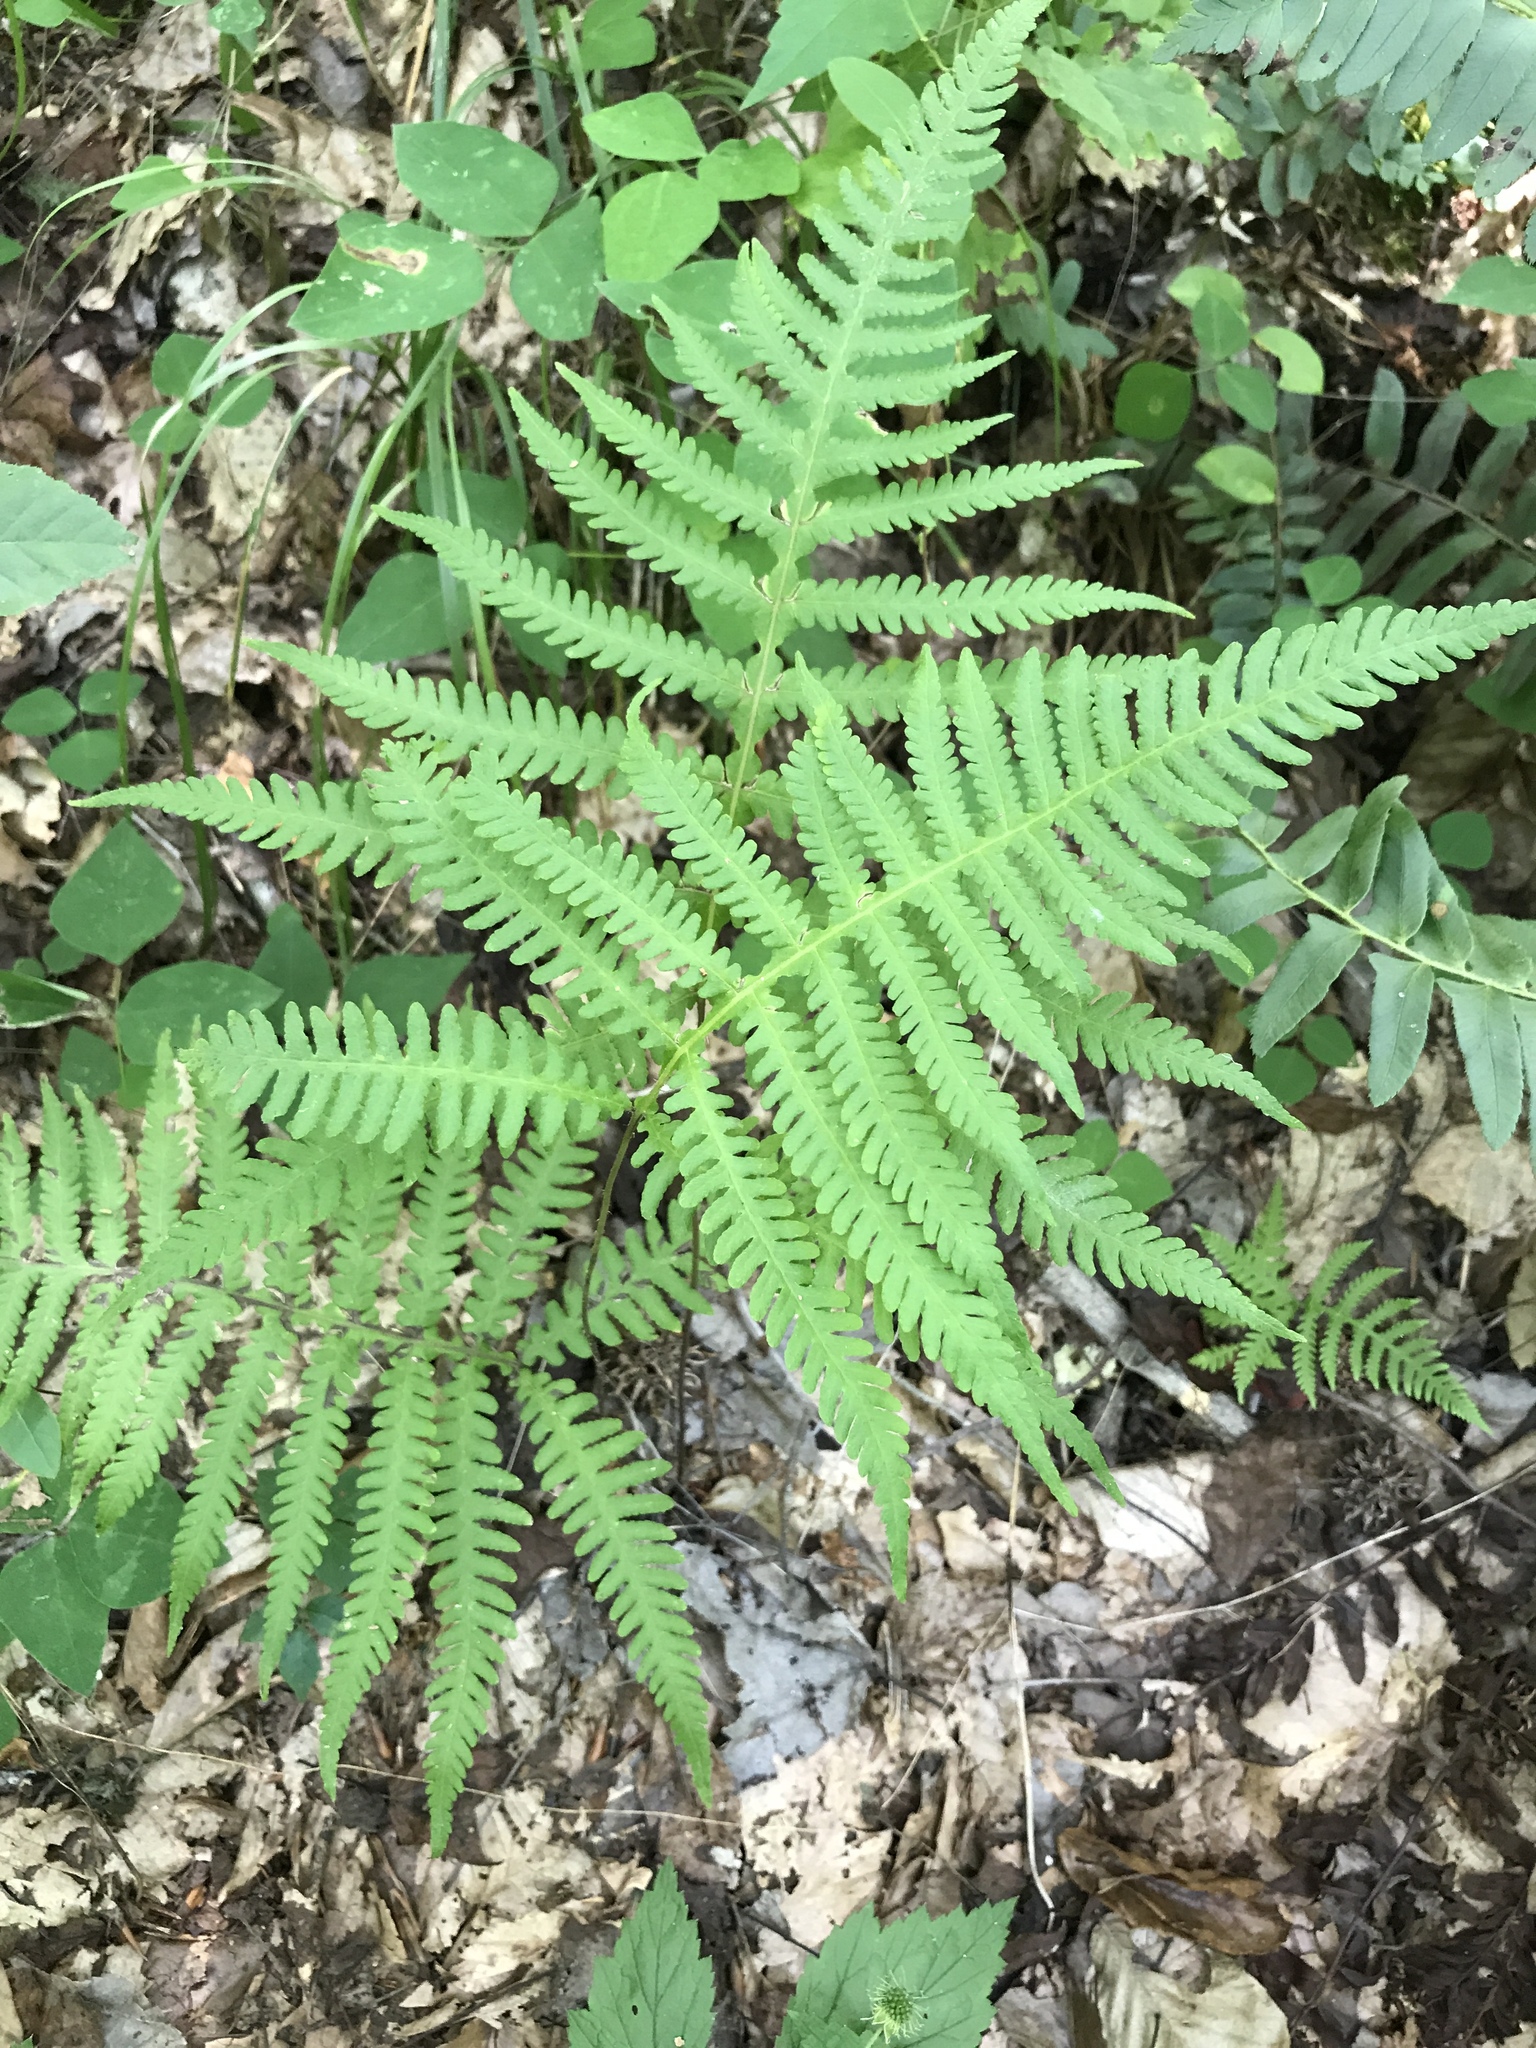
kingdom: Plantae
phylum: Tracheophyta
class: Polypodiopsida
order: Polypodiales
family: Thelypteridaceae
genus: Phegopteris
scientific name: Phegopteris hexagonoptera
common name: Broad beech fern
